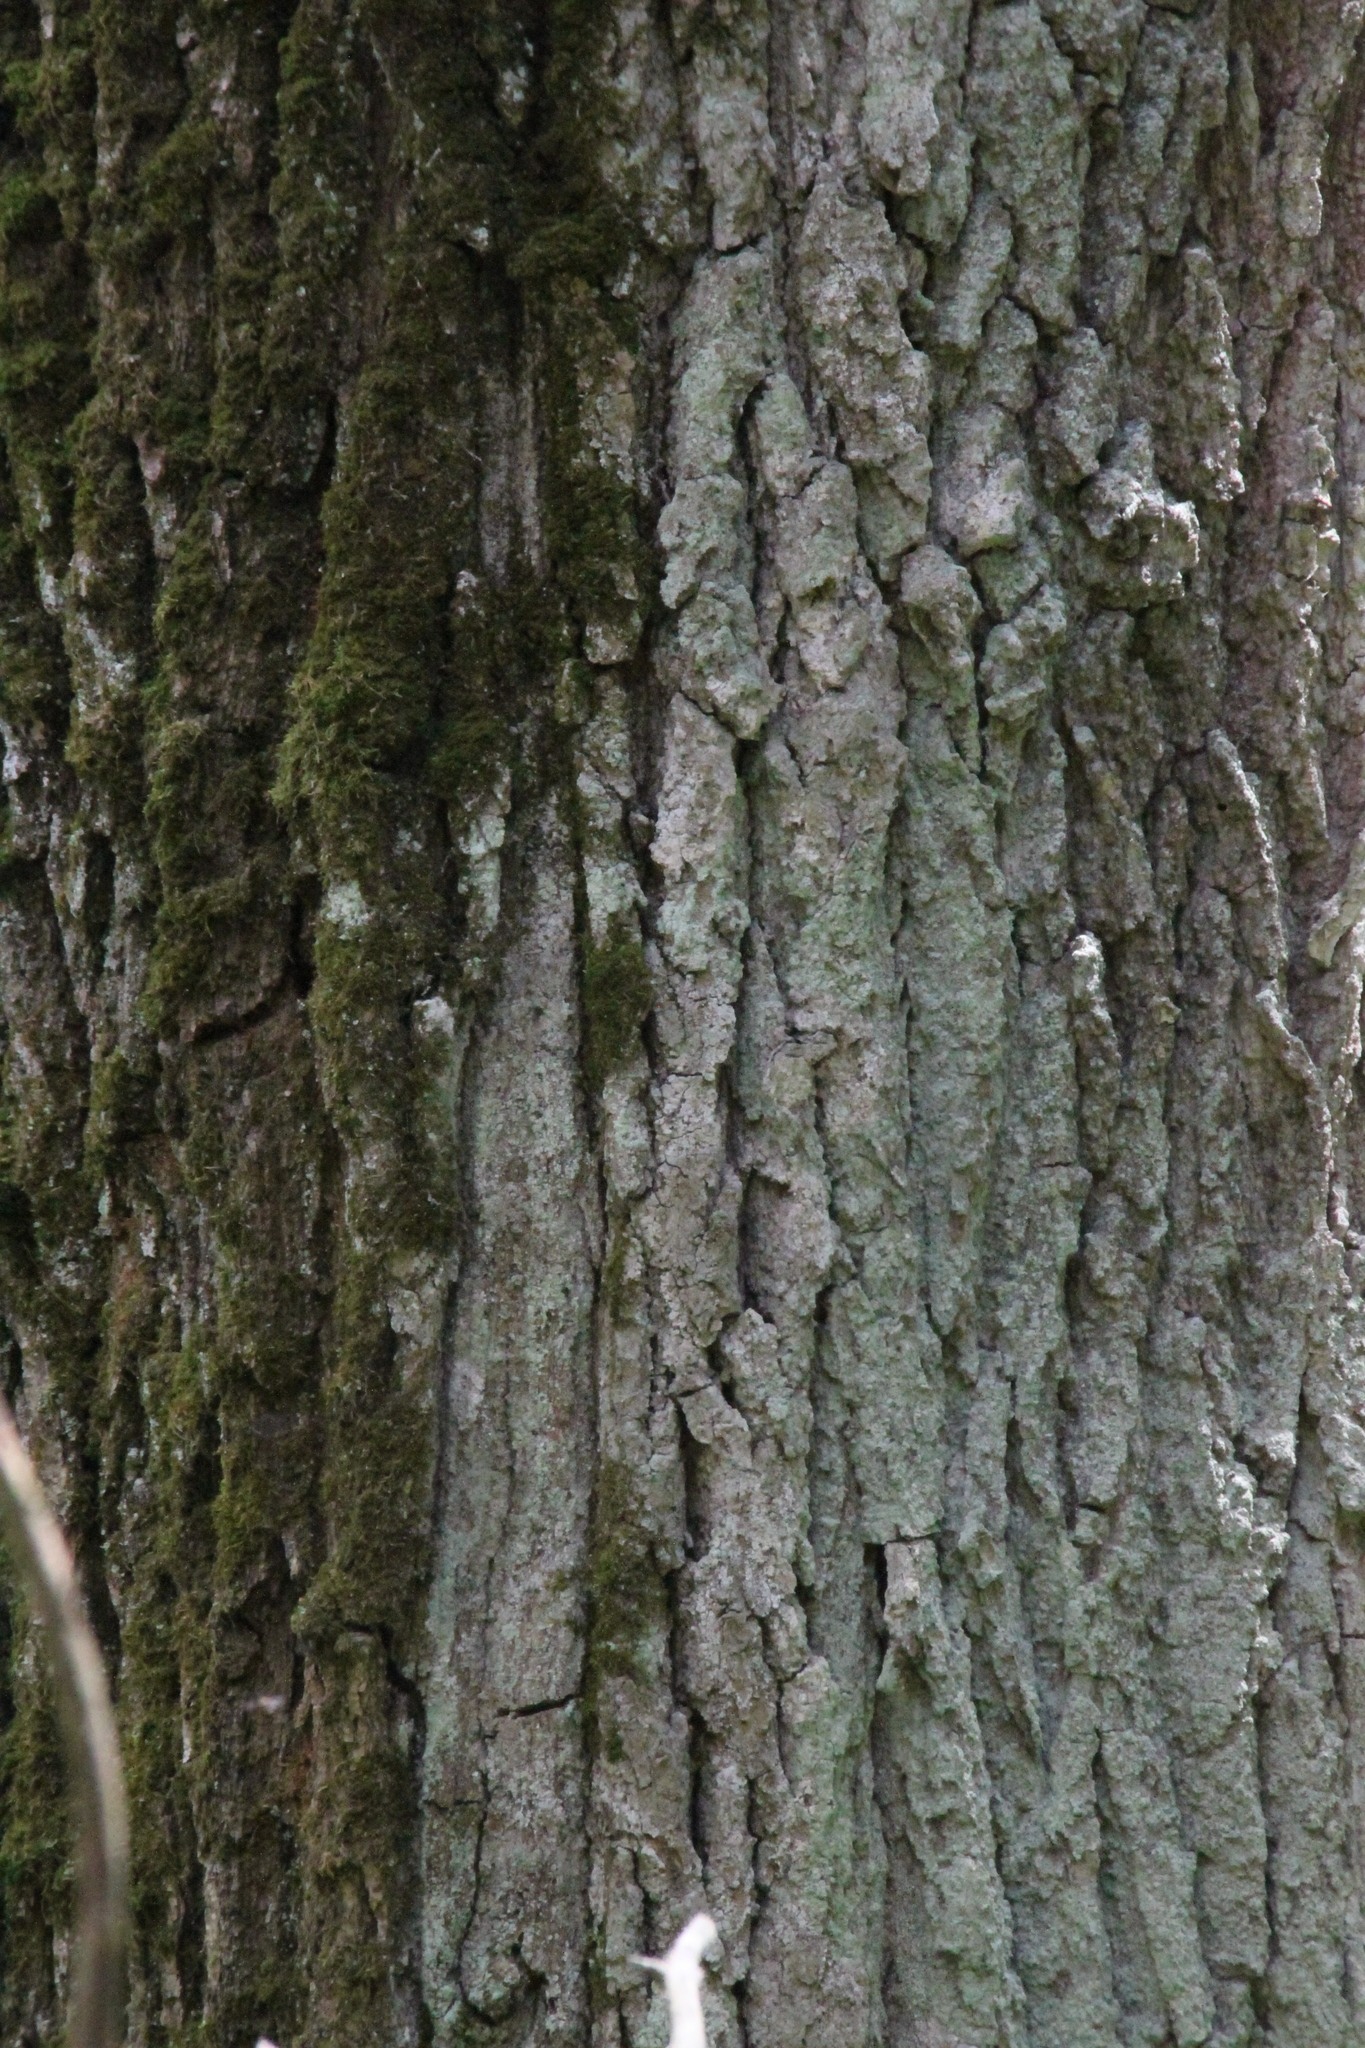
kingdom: Plantae
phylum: Tracheophyta
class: Magnoliopsida
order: Fagales
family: Fagaceae
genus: Quercus
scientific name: Quercus robur
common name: Pedunculate oak
